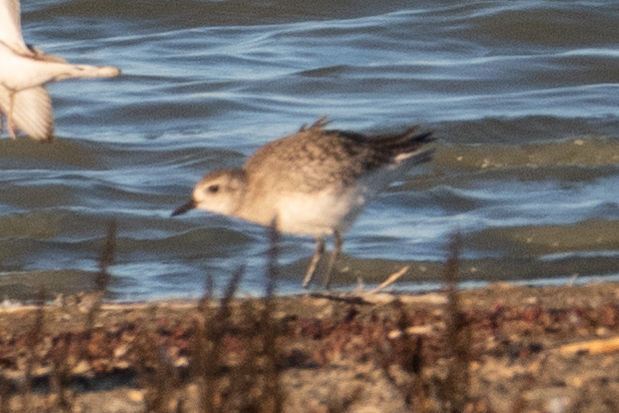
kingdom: Animalia
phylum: Chordata
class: Aves
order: Charadriiformes
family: Charadriidae
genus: Pluvialis
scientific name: Pluvialis squatarola
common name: Grey plover
